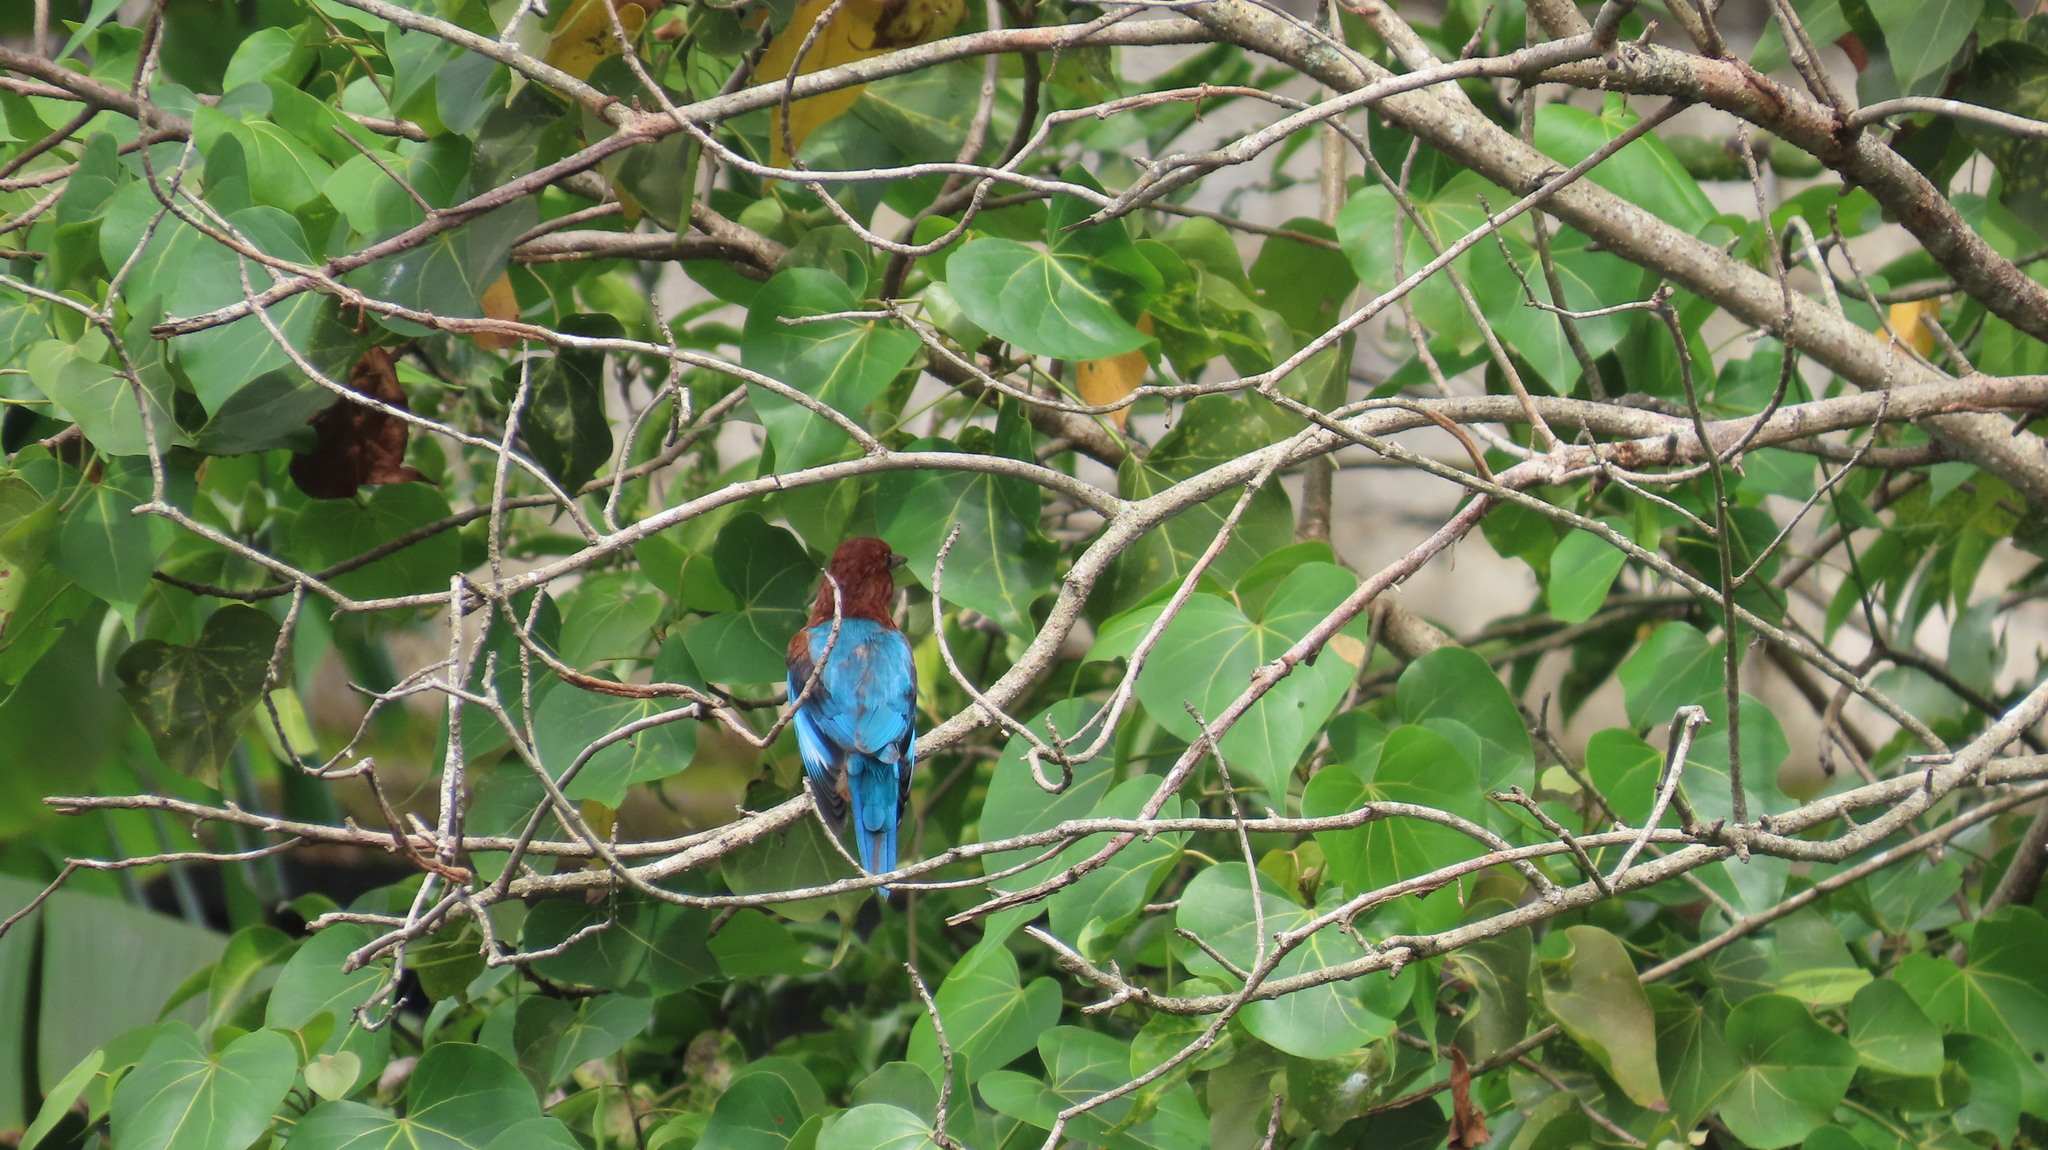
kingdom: Animalia
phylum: Chordata
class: Aves
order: Coraciiformes
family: Alcedinidae
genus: Halcyon
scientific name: Halcyon smyrnensis
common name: White-throated kingfisher
